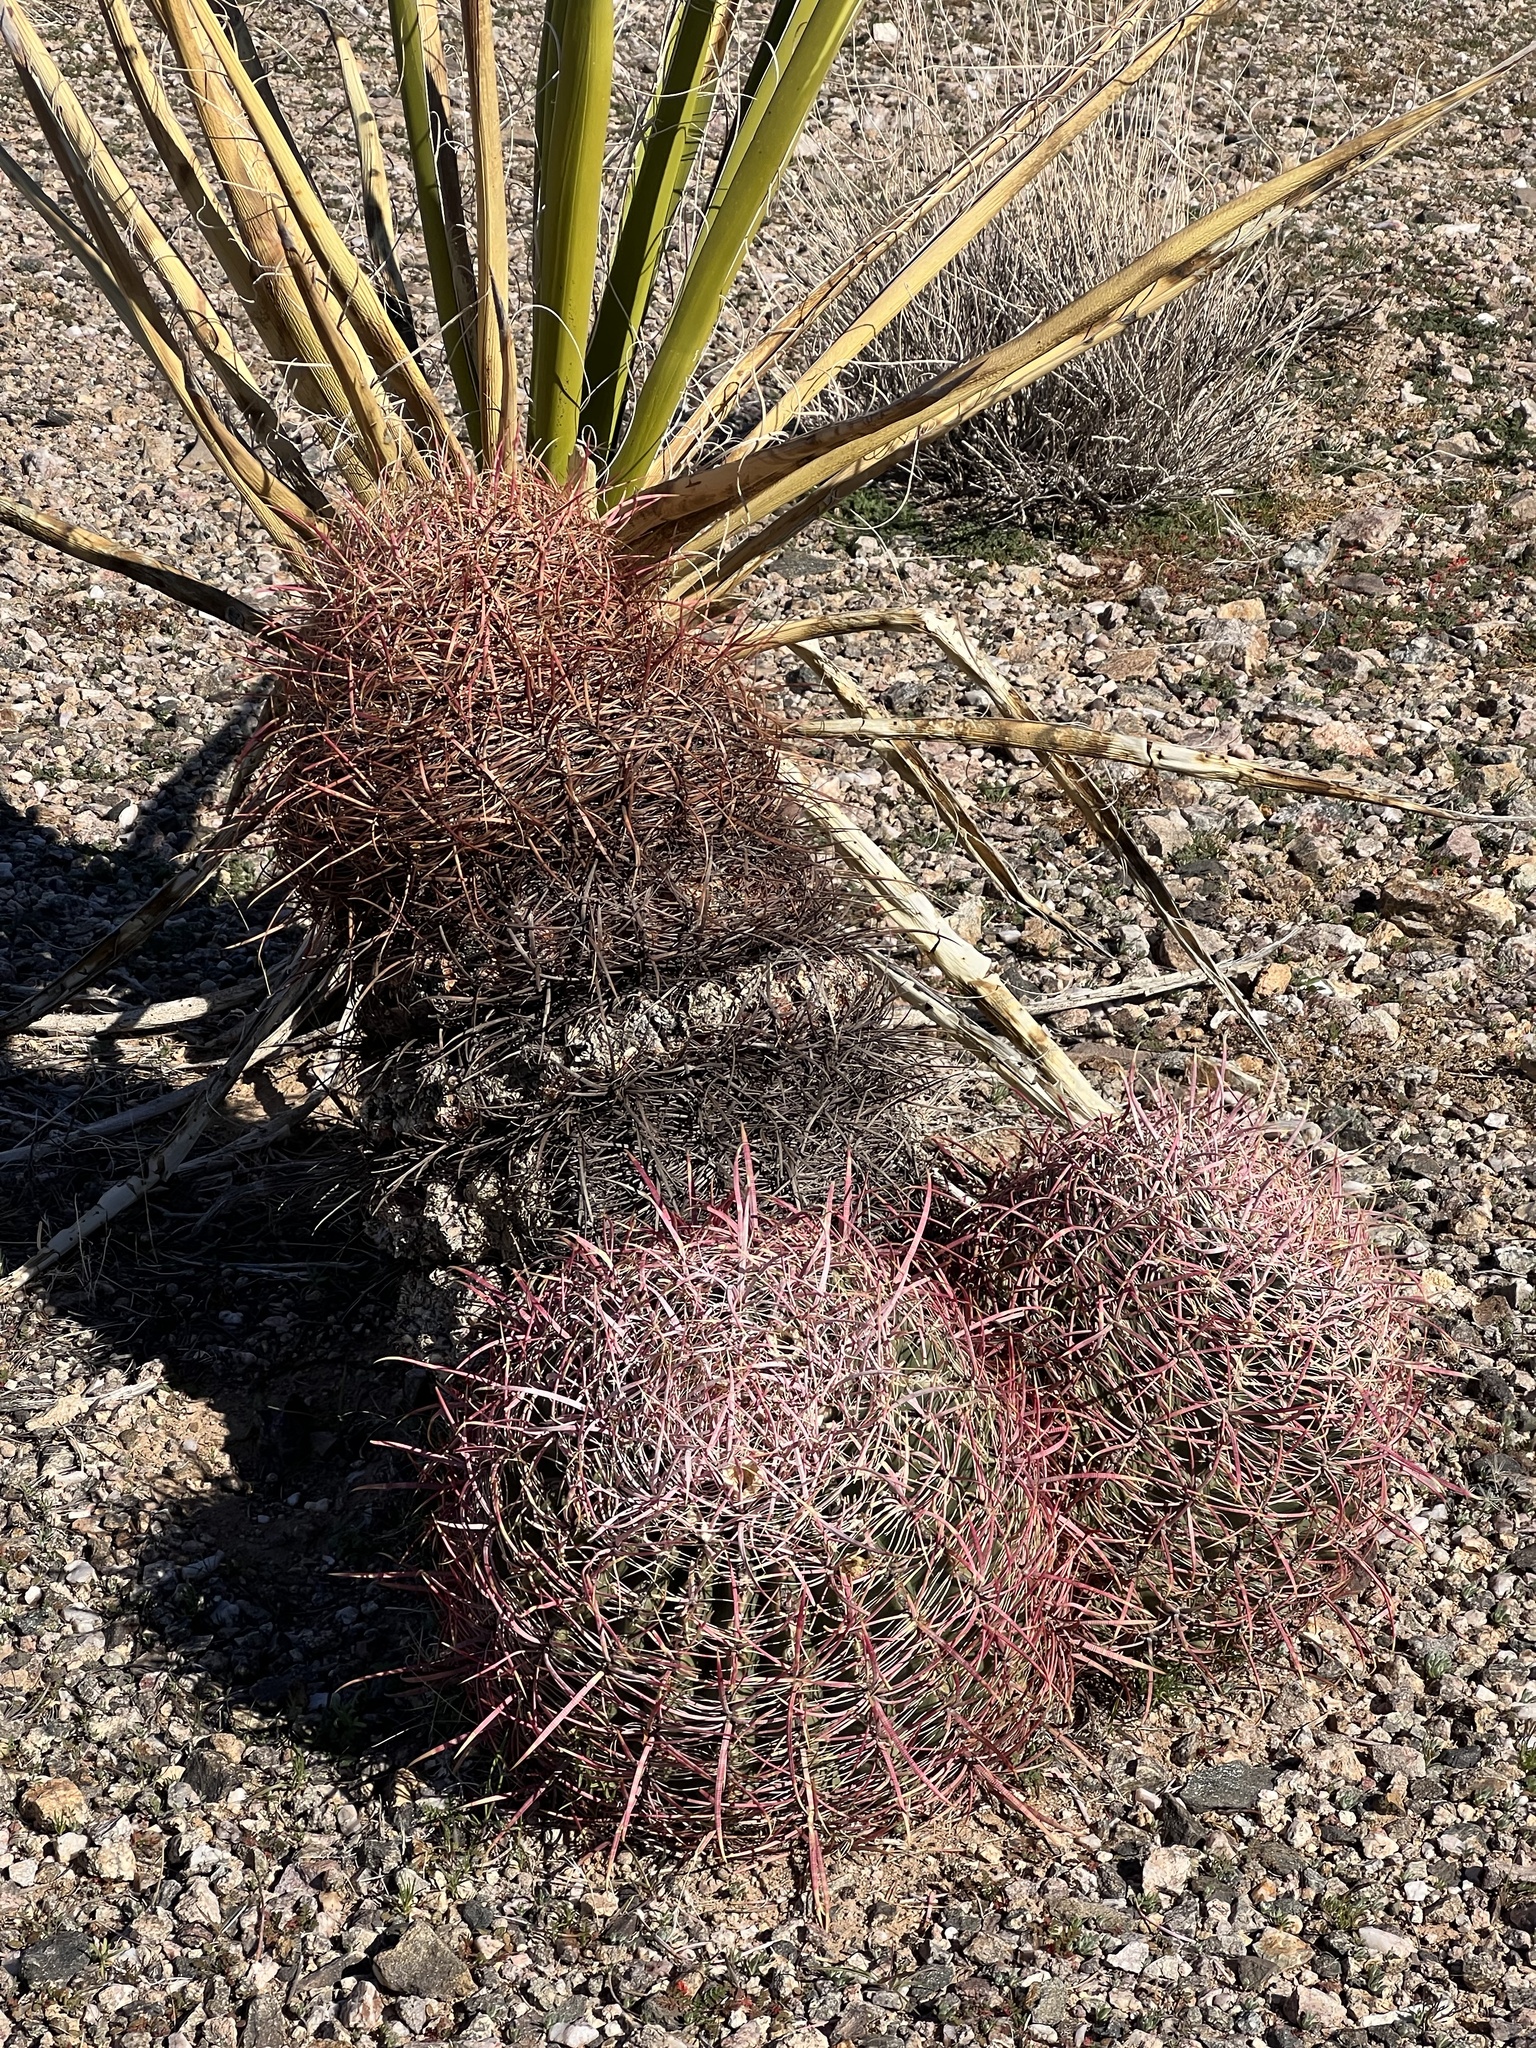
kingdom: Plantae
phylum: Tracheophyta
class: Magnoliopsida
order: Caryophyllales
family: Cactaceae
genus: Ferocactus
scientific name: Ferocactus cylindraceus
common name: California barrel cactus
